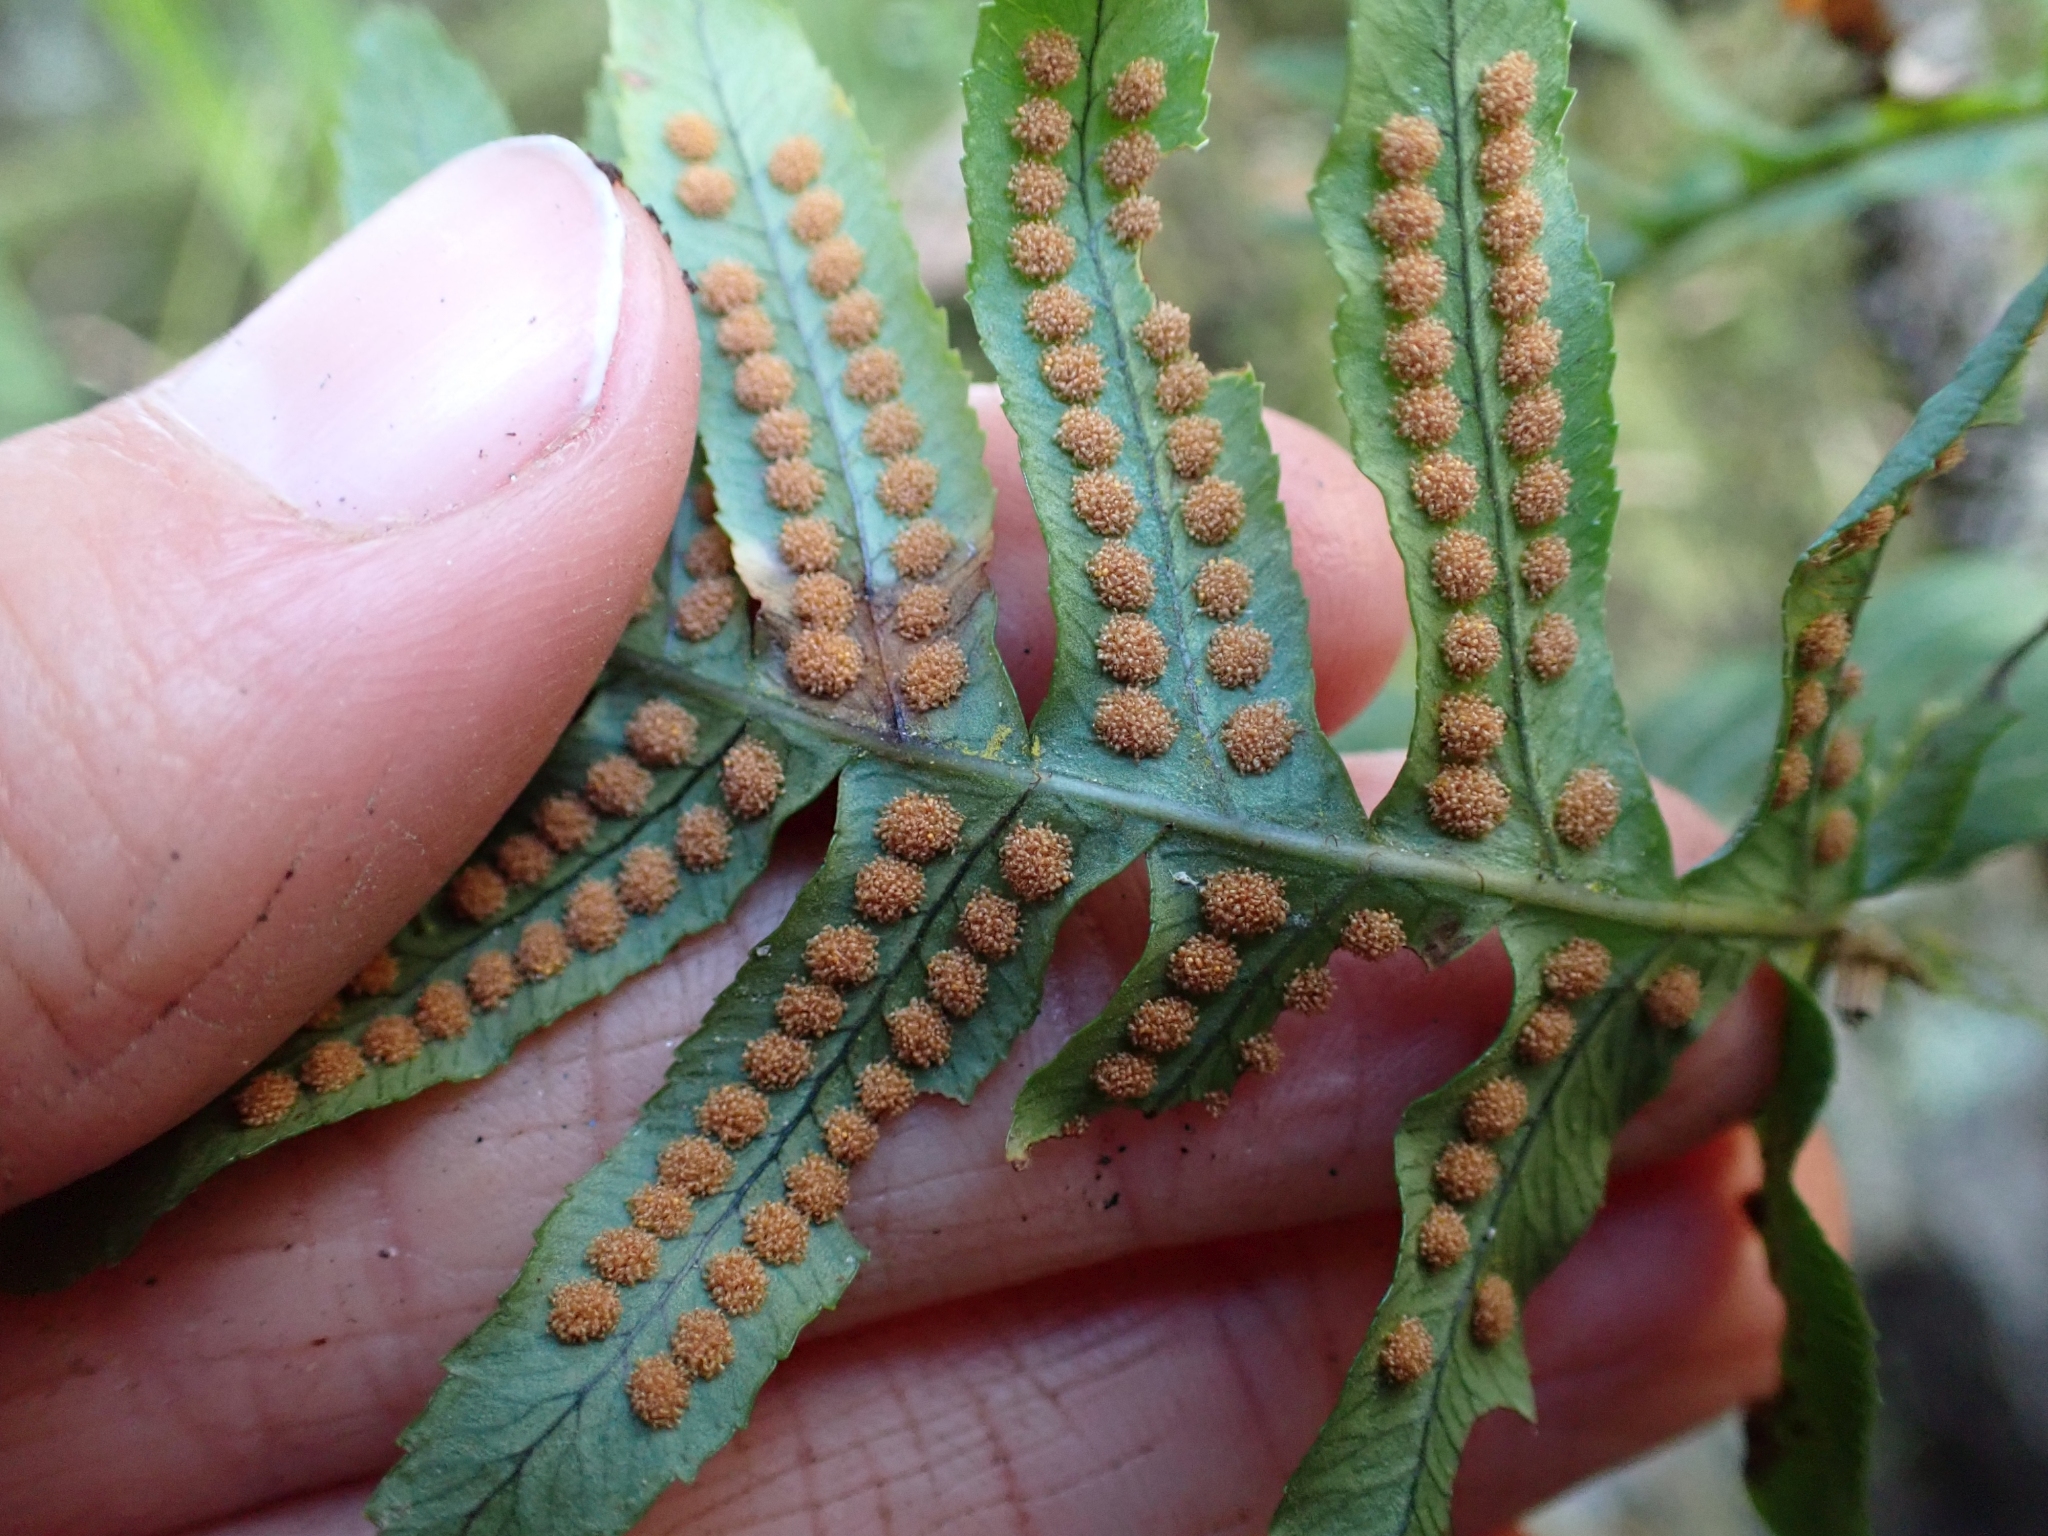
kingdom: Plantae
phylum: Tracheophyta
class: Polypodiopsida
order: Polypodiales
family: Polypodiaceae
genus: Polypodium
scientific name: Polypodium glycyrrhiza
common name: Licorice fern
